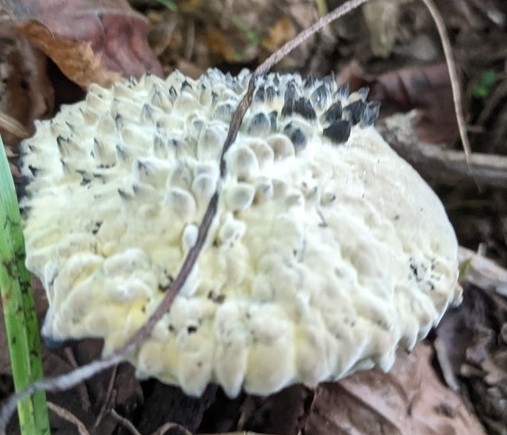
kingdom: Fungi
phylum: Basidiomycota
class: Agaricomycetes
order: Boletales
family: Boletaceae
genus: Strobilomyces
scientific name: Strobilomyces strobilaceus
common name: Old man of the woods
